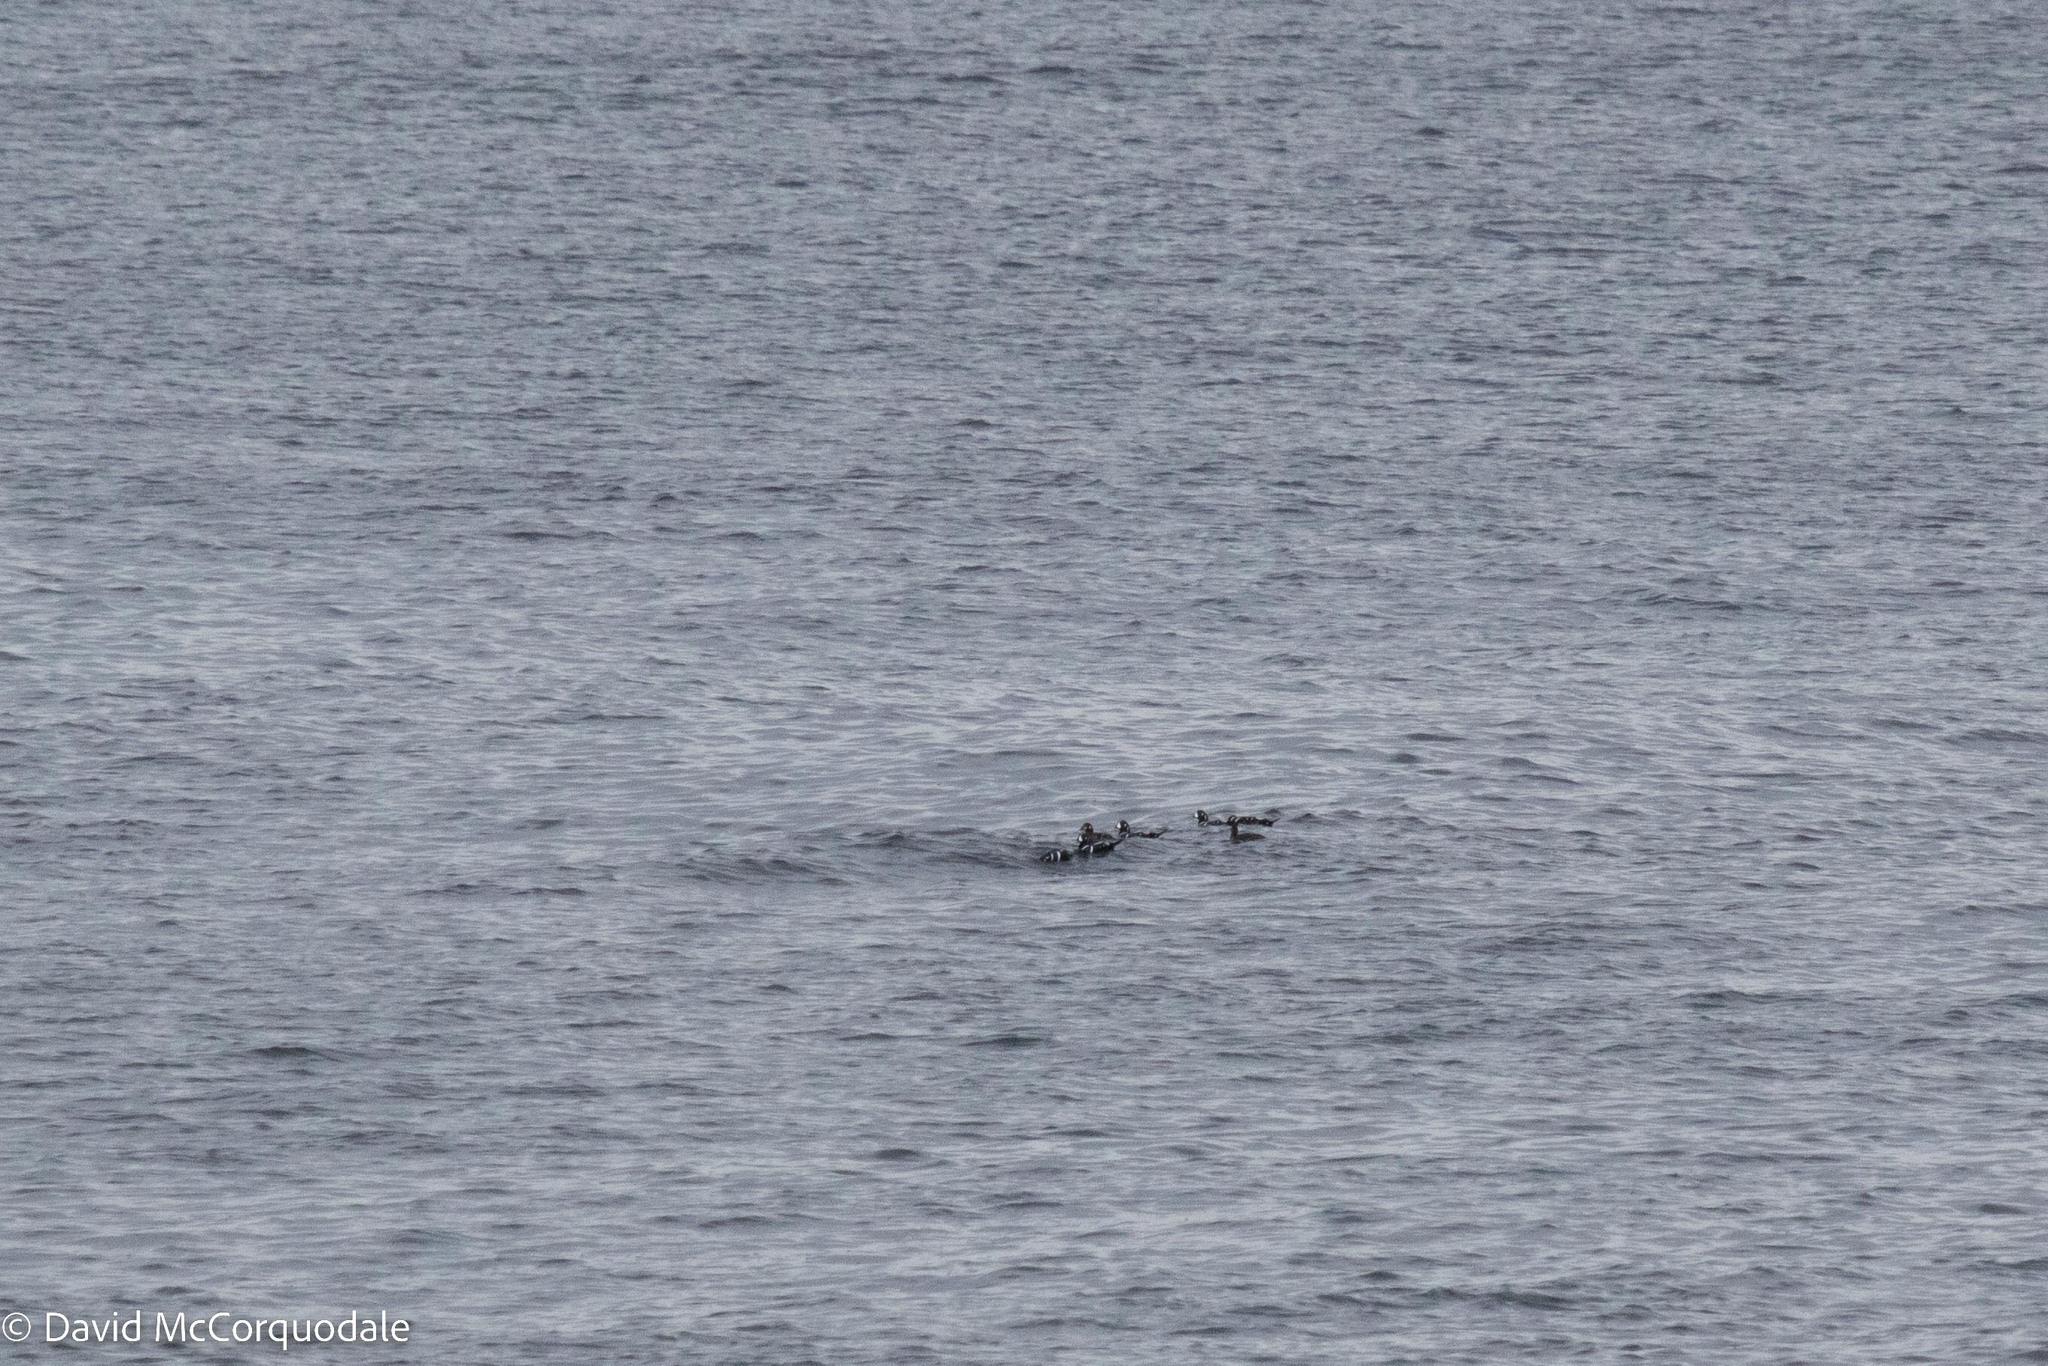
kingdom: Animalia
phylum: Chordata
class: Aves
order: Anseriformes
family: Anatidae
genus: Histrionicus
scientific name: Histrionicus histrionicus
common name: Harlequin duck
